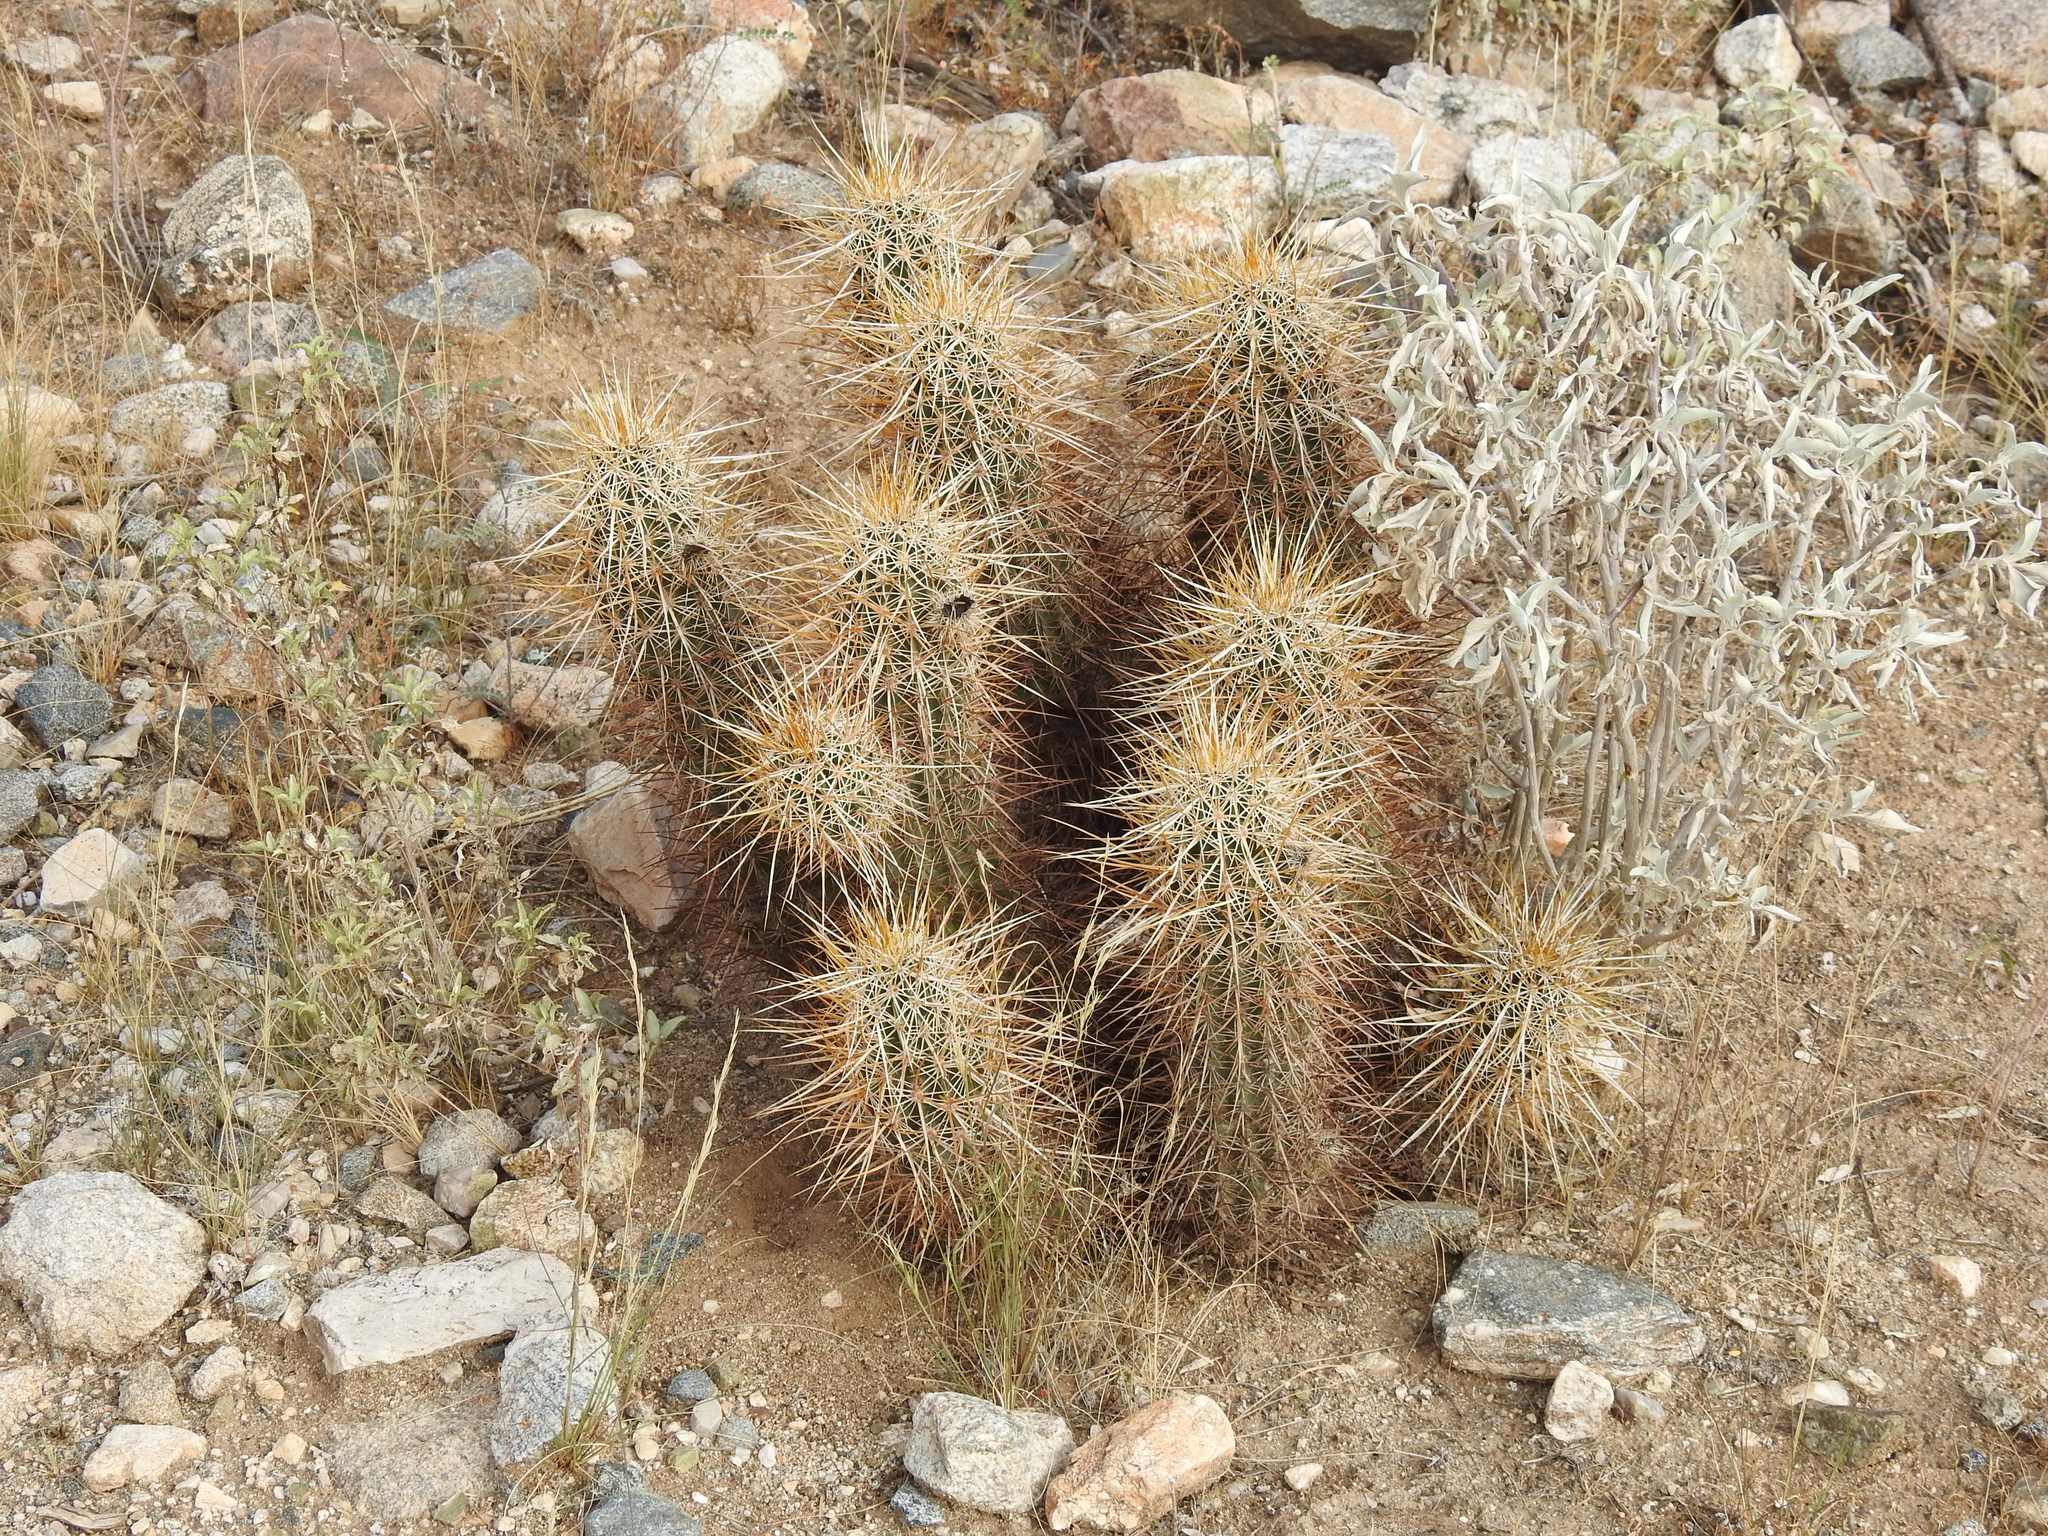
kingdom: Plantae
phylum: Tracheophyta
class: Magnoliopsida
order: Caryophyllales
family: Cactaceae
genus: Echinocereus
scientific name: Echinocereus engelmannii
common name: Engelmann's hedgehog cactus
